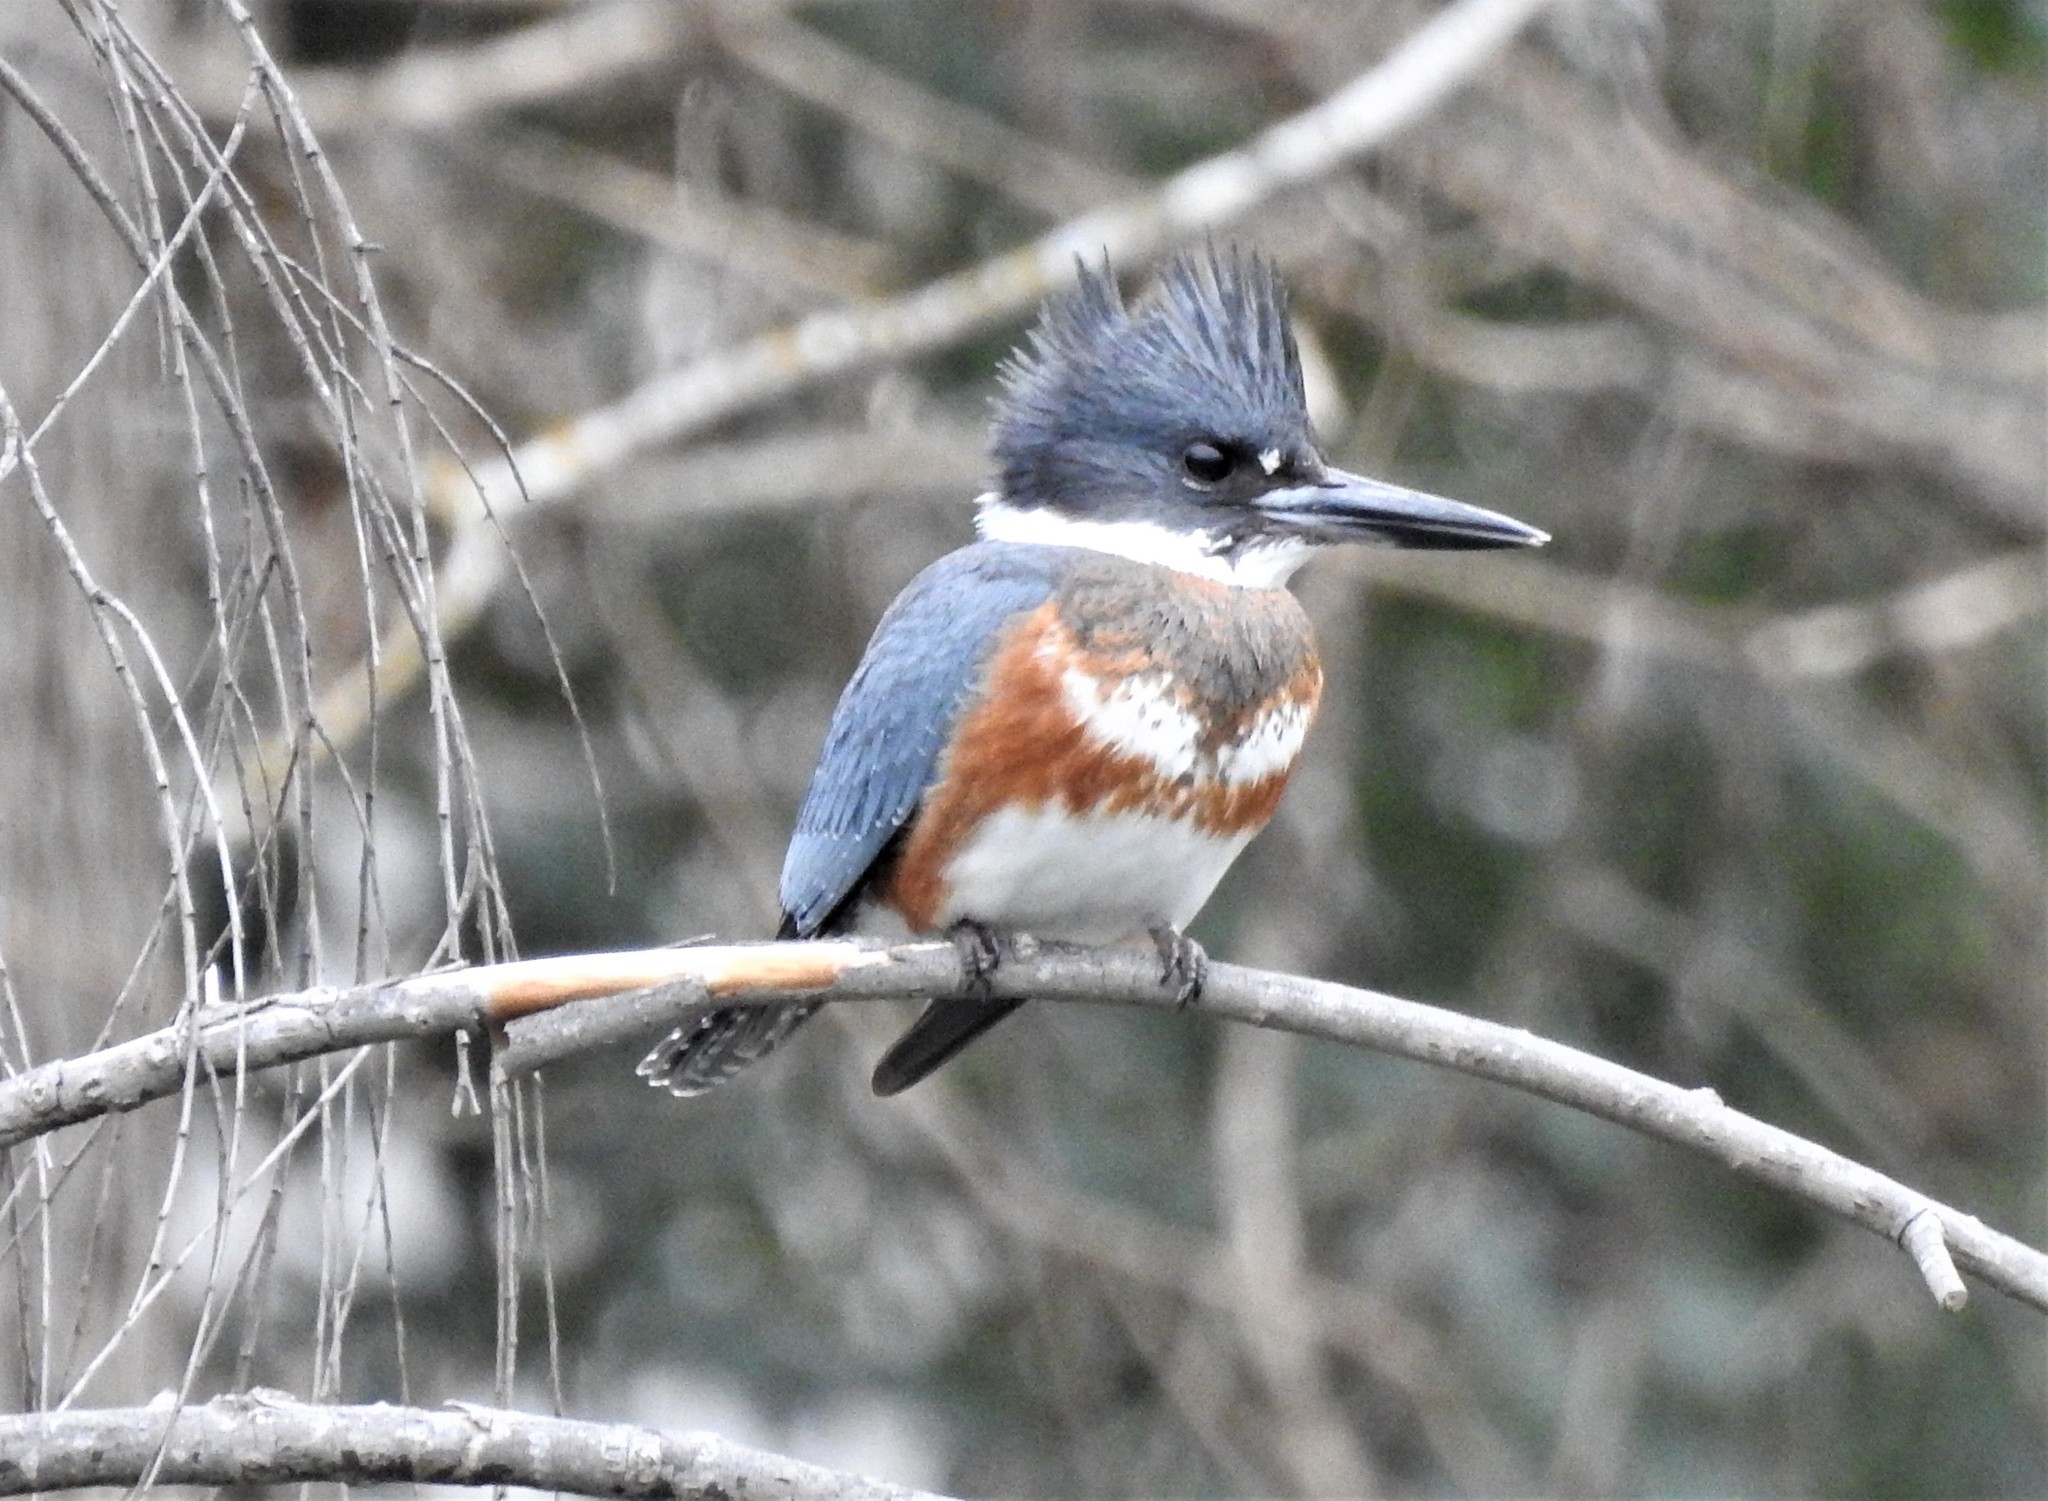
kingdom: Animalia
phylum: Chordata
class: Aves
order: Coraciiformes
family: Alcedinidae
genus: Megaceryle
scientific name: Megaceryle alcyon
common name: Belted kingfisher
